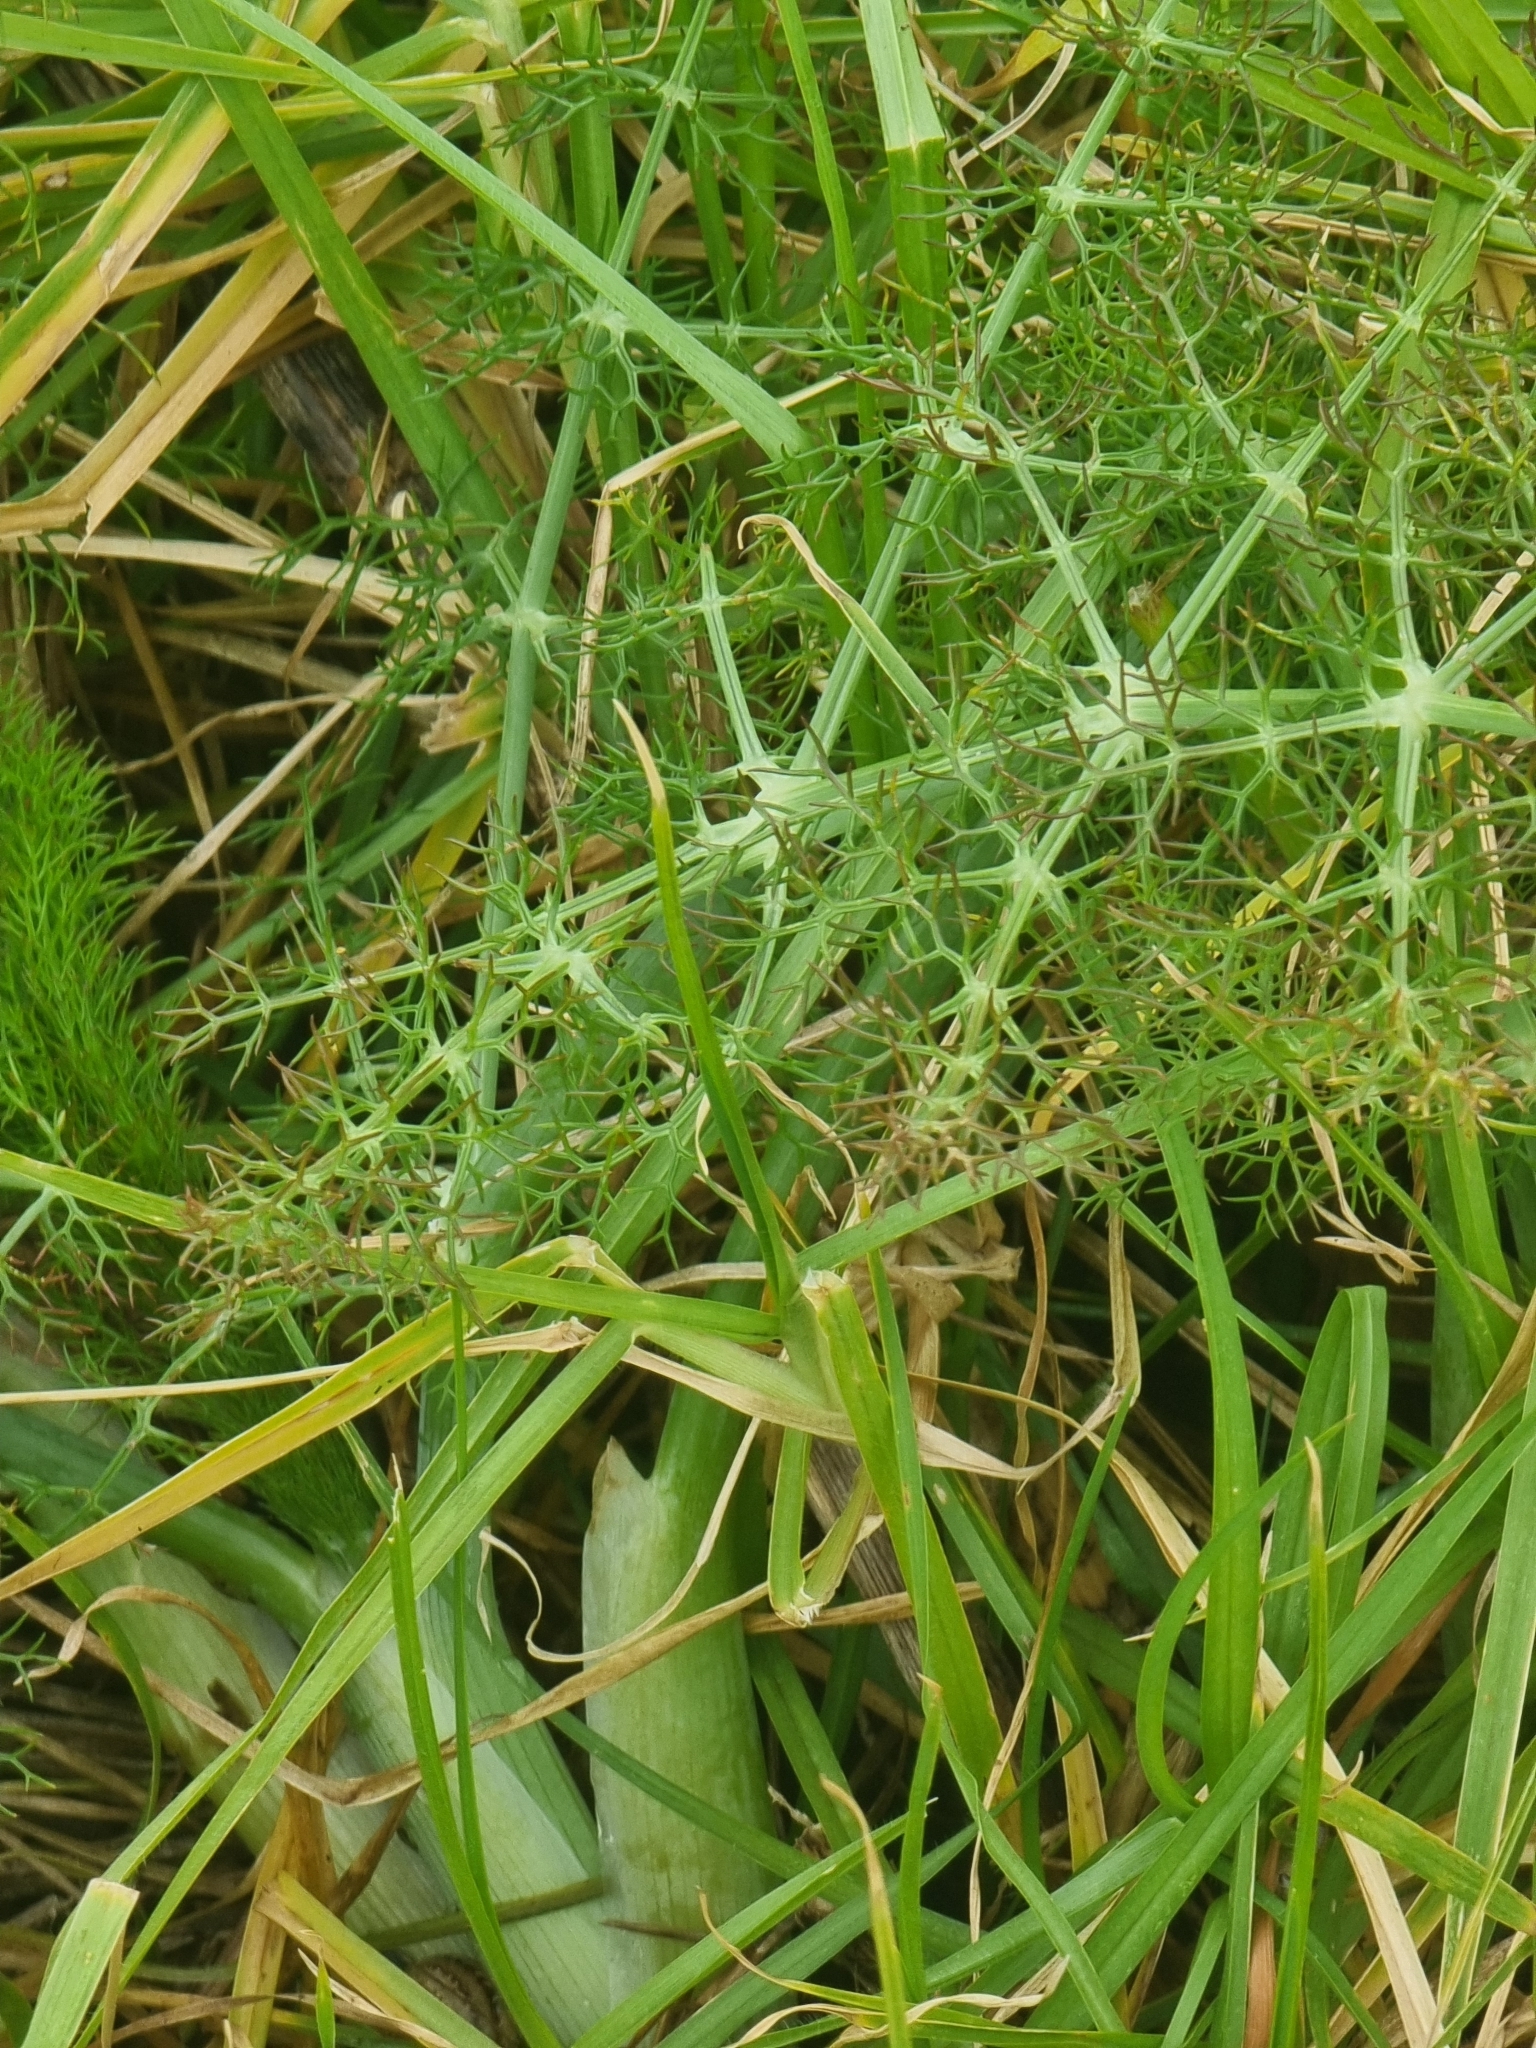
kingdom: Plantae
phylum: Tracheophyta
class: Magnoliopsida
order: Apiales
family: Apiaceae
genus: Foeniculum
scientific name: Foeniculum vulgare
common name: Fennel
